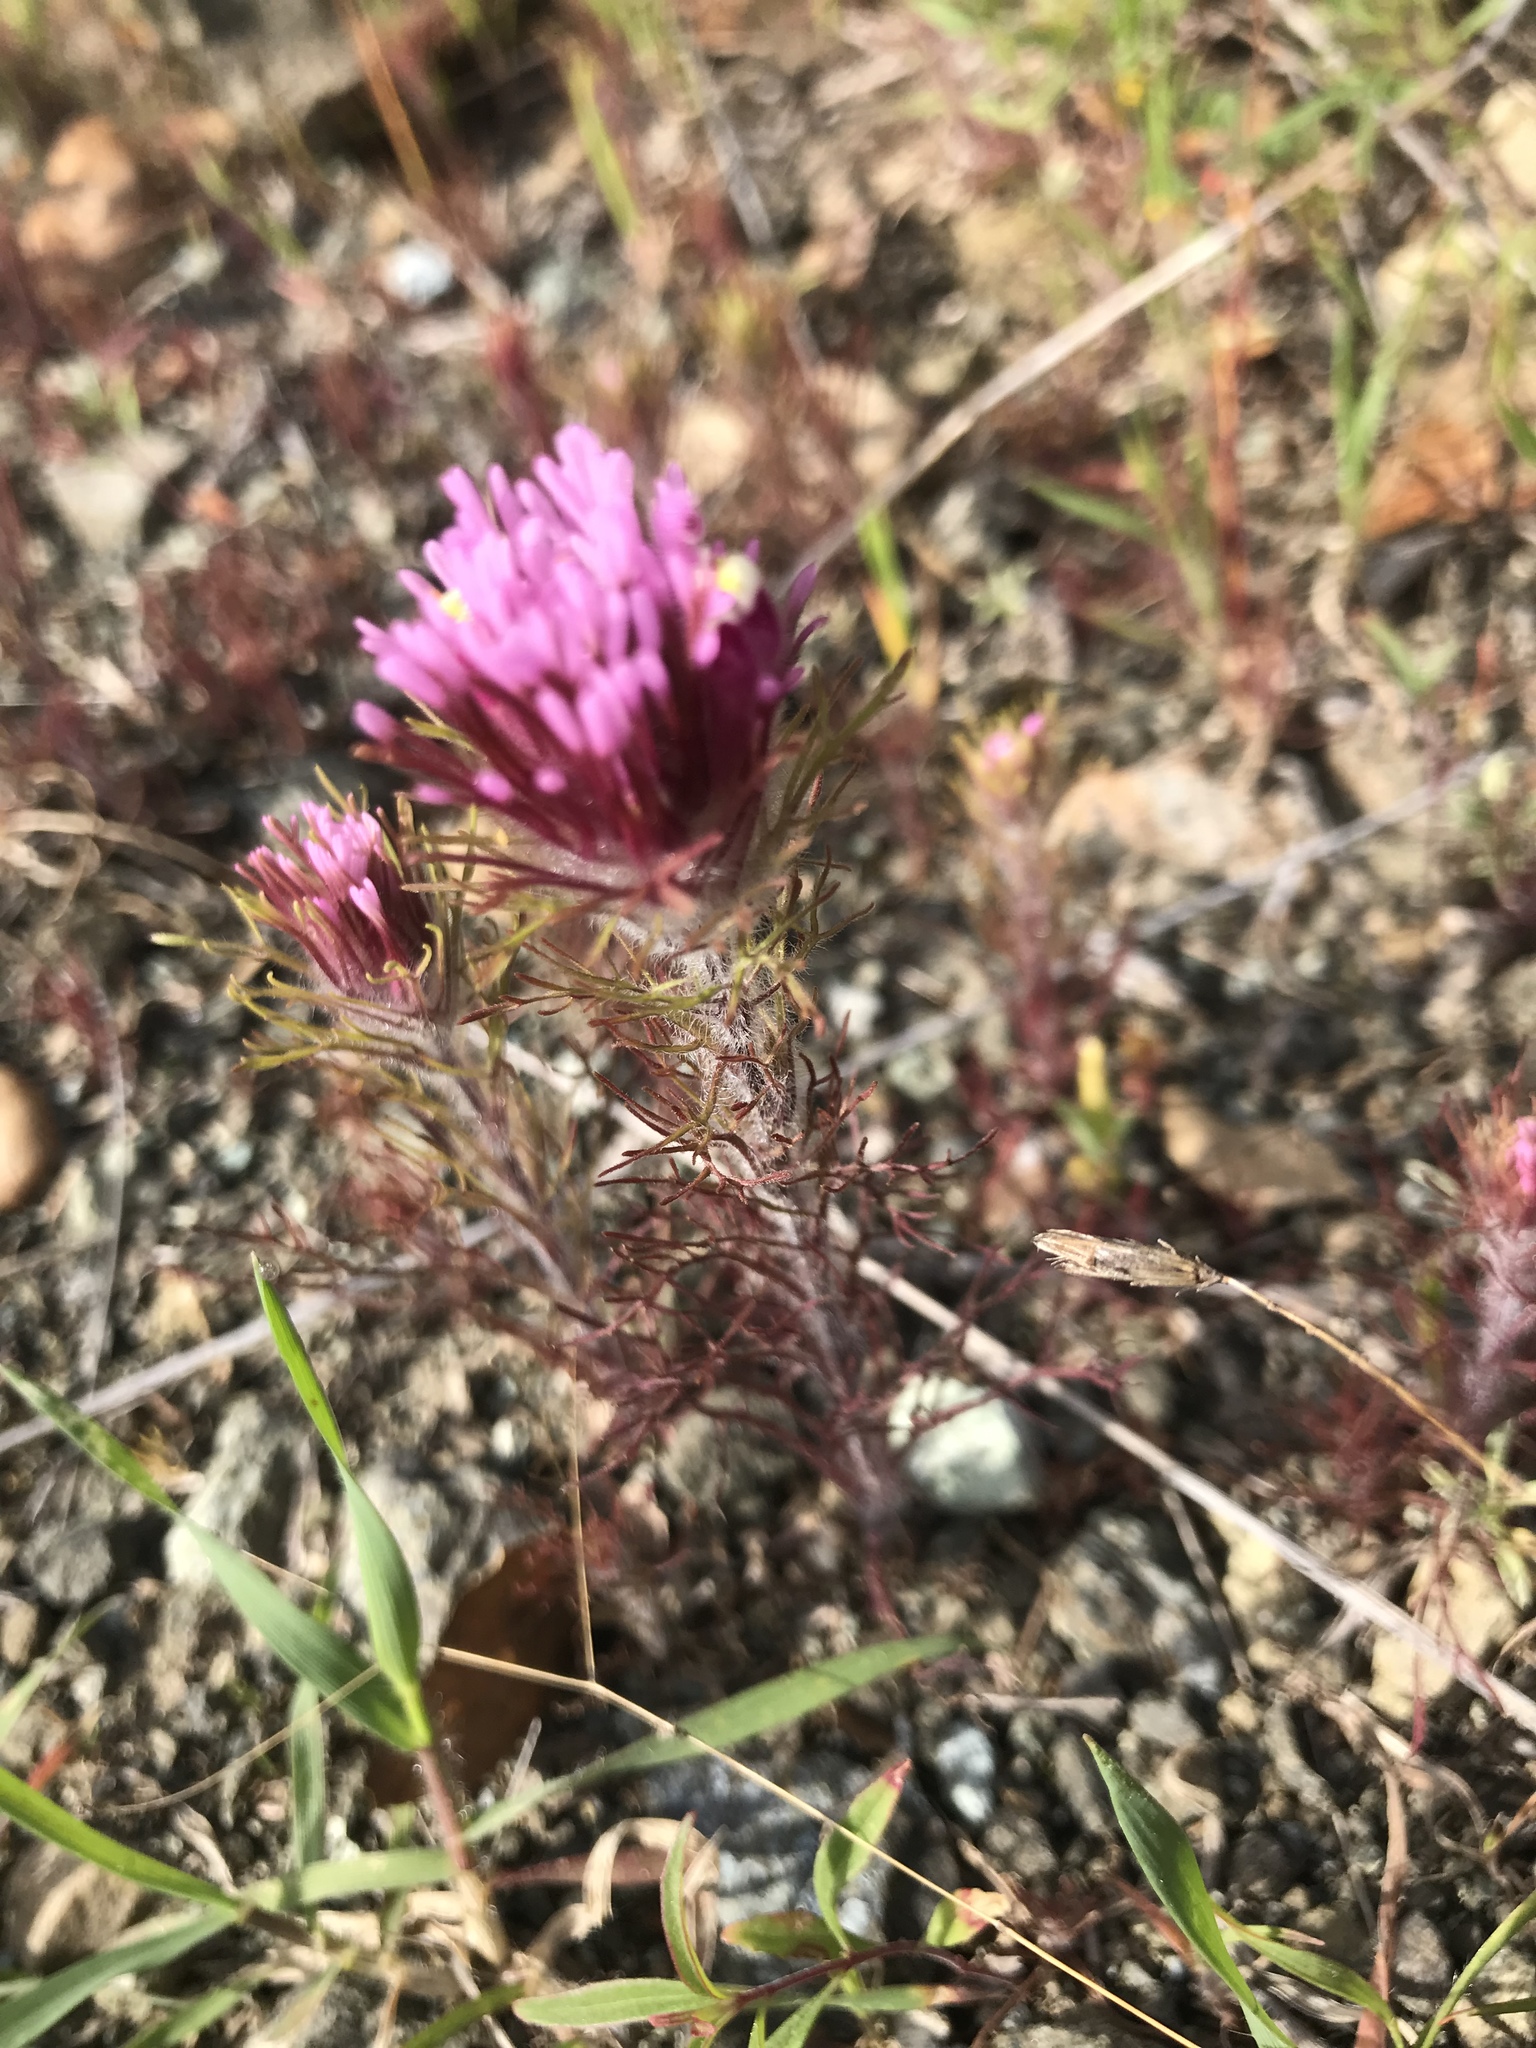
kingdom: Plantae
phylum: Tracheophyta
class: Magnoliopsida
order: Lamiales
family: Orobanchaceae
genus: Castilleja
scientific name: Castilleja exserta
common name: Purple owl-clover
